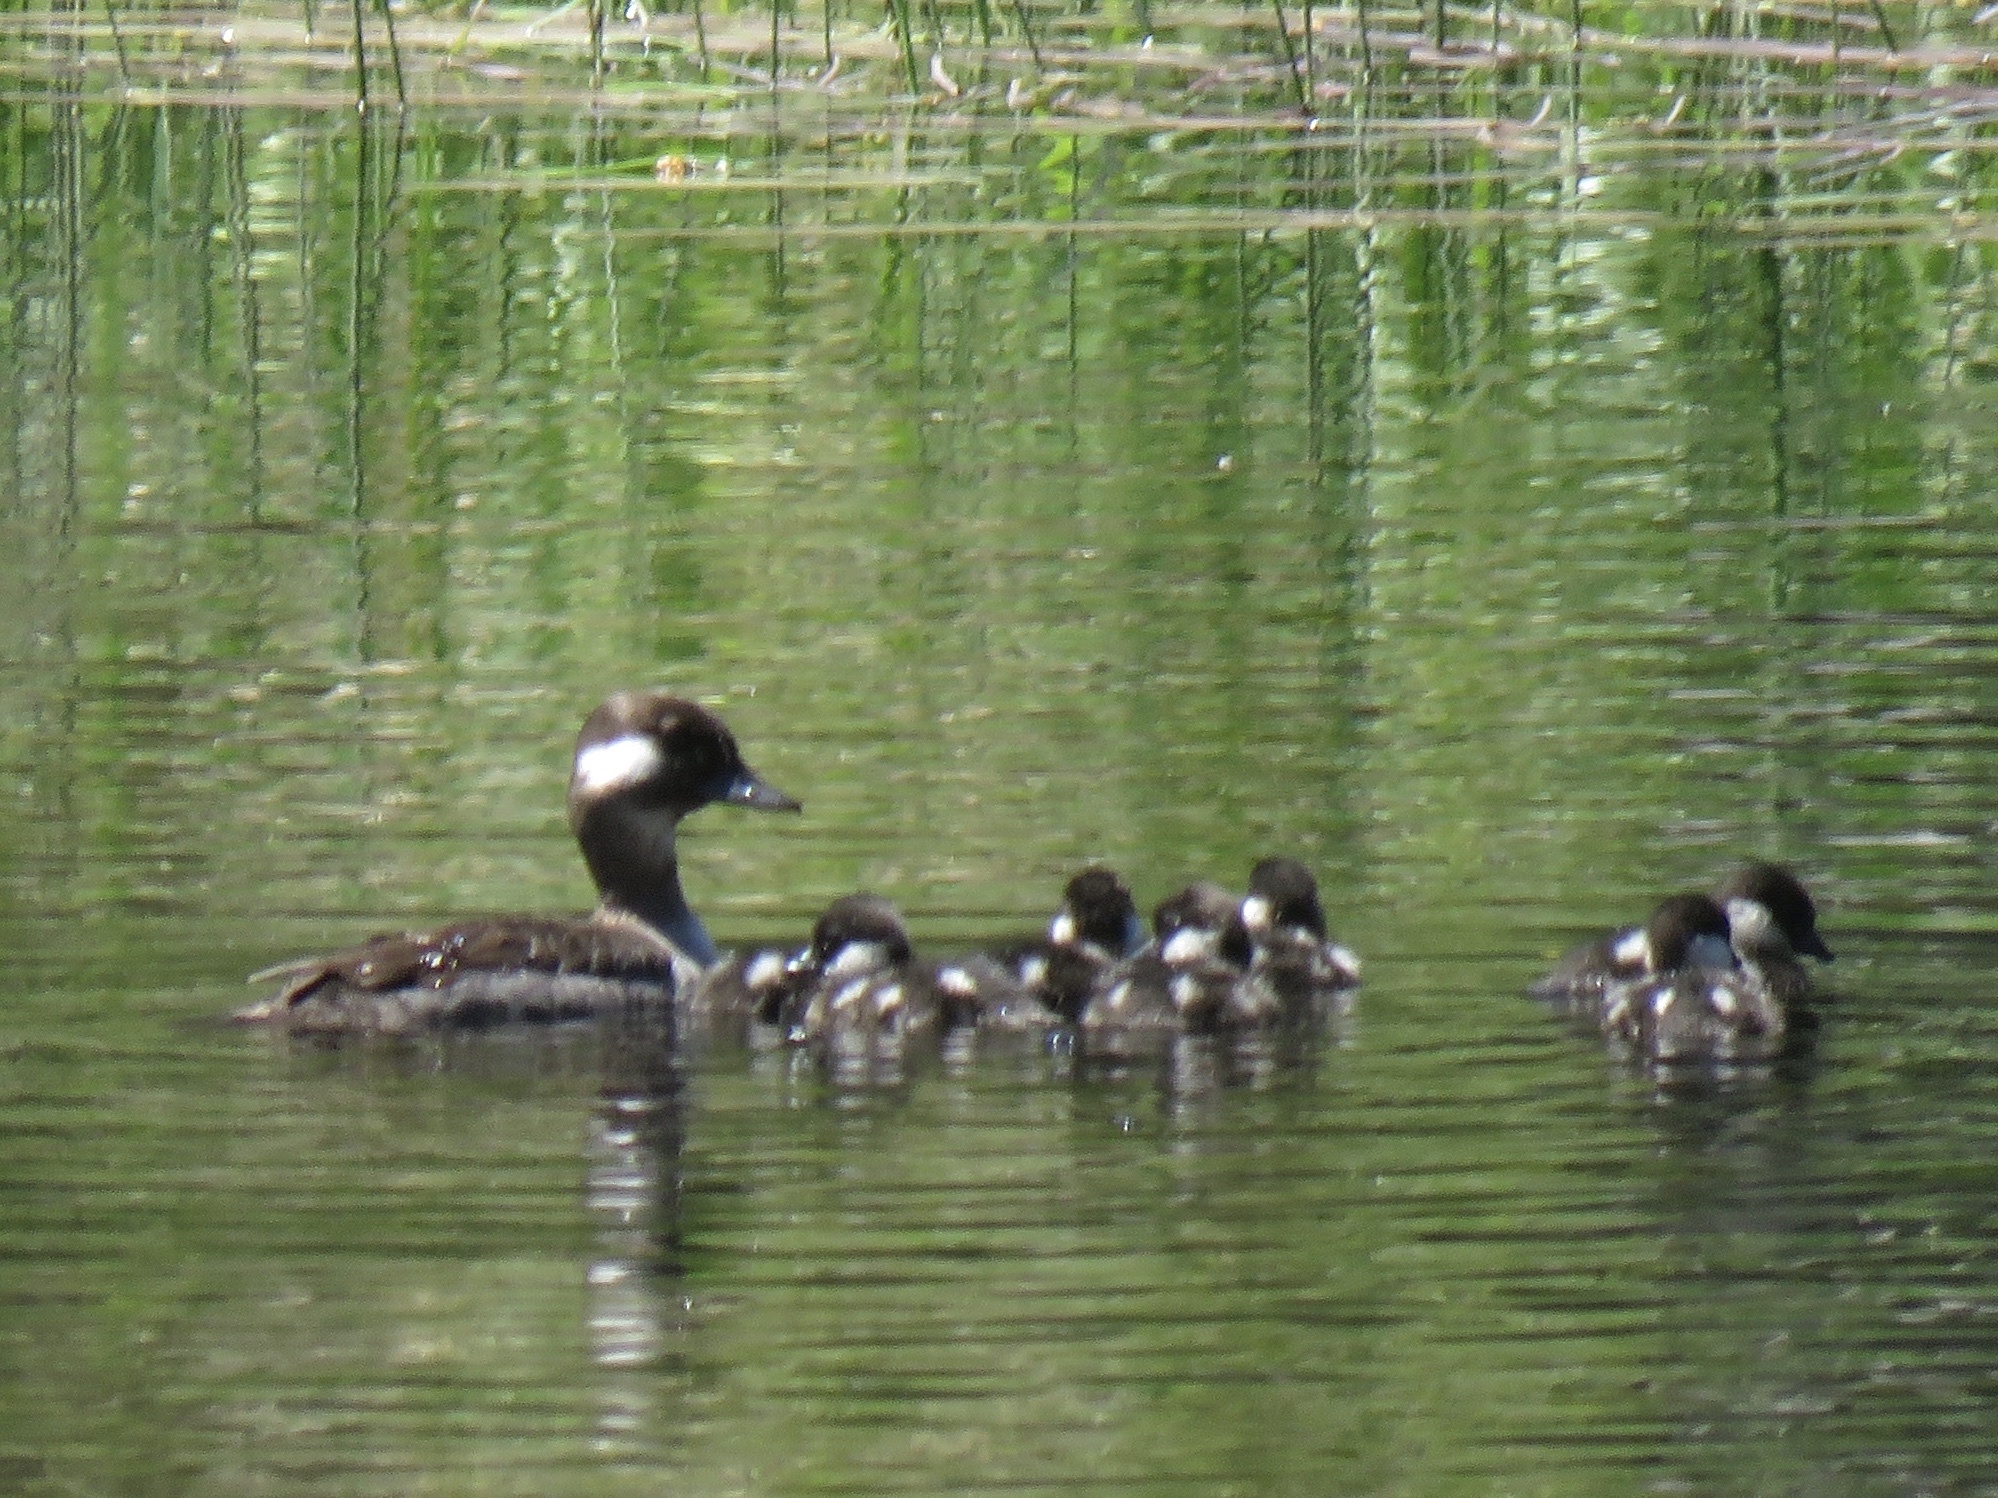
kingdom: Animalia
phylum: Chordata
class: Aves
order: Anseriformes
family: Anatidae
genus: Bucephala
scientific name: Bucephala albeola
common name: Bufflehead
